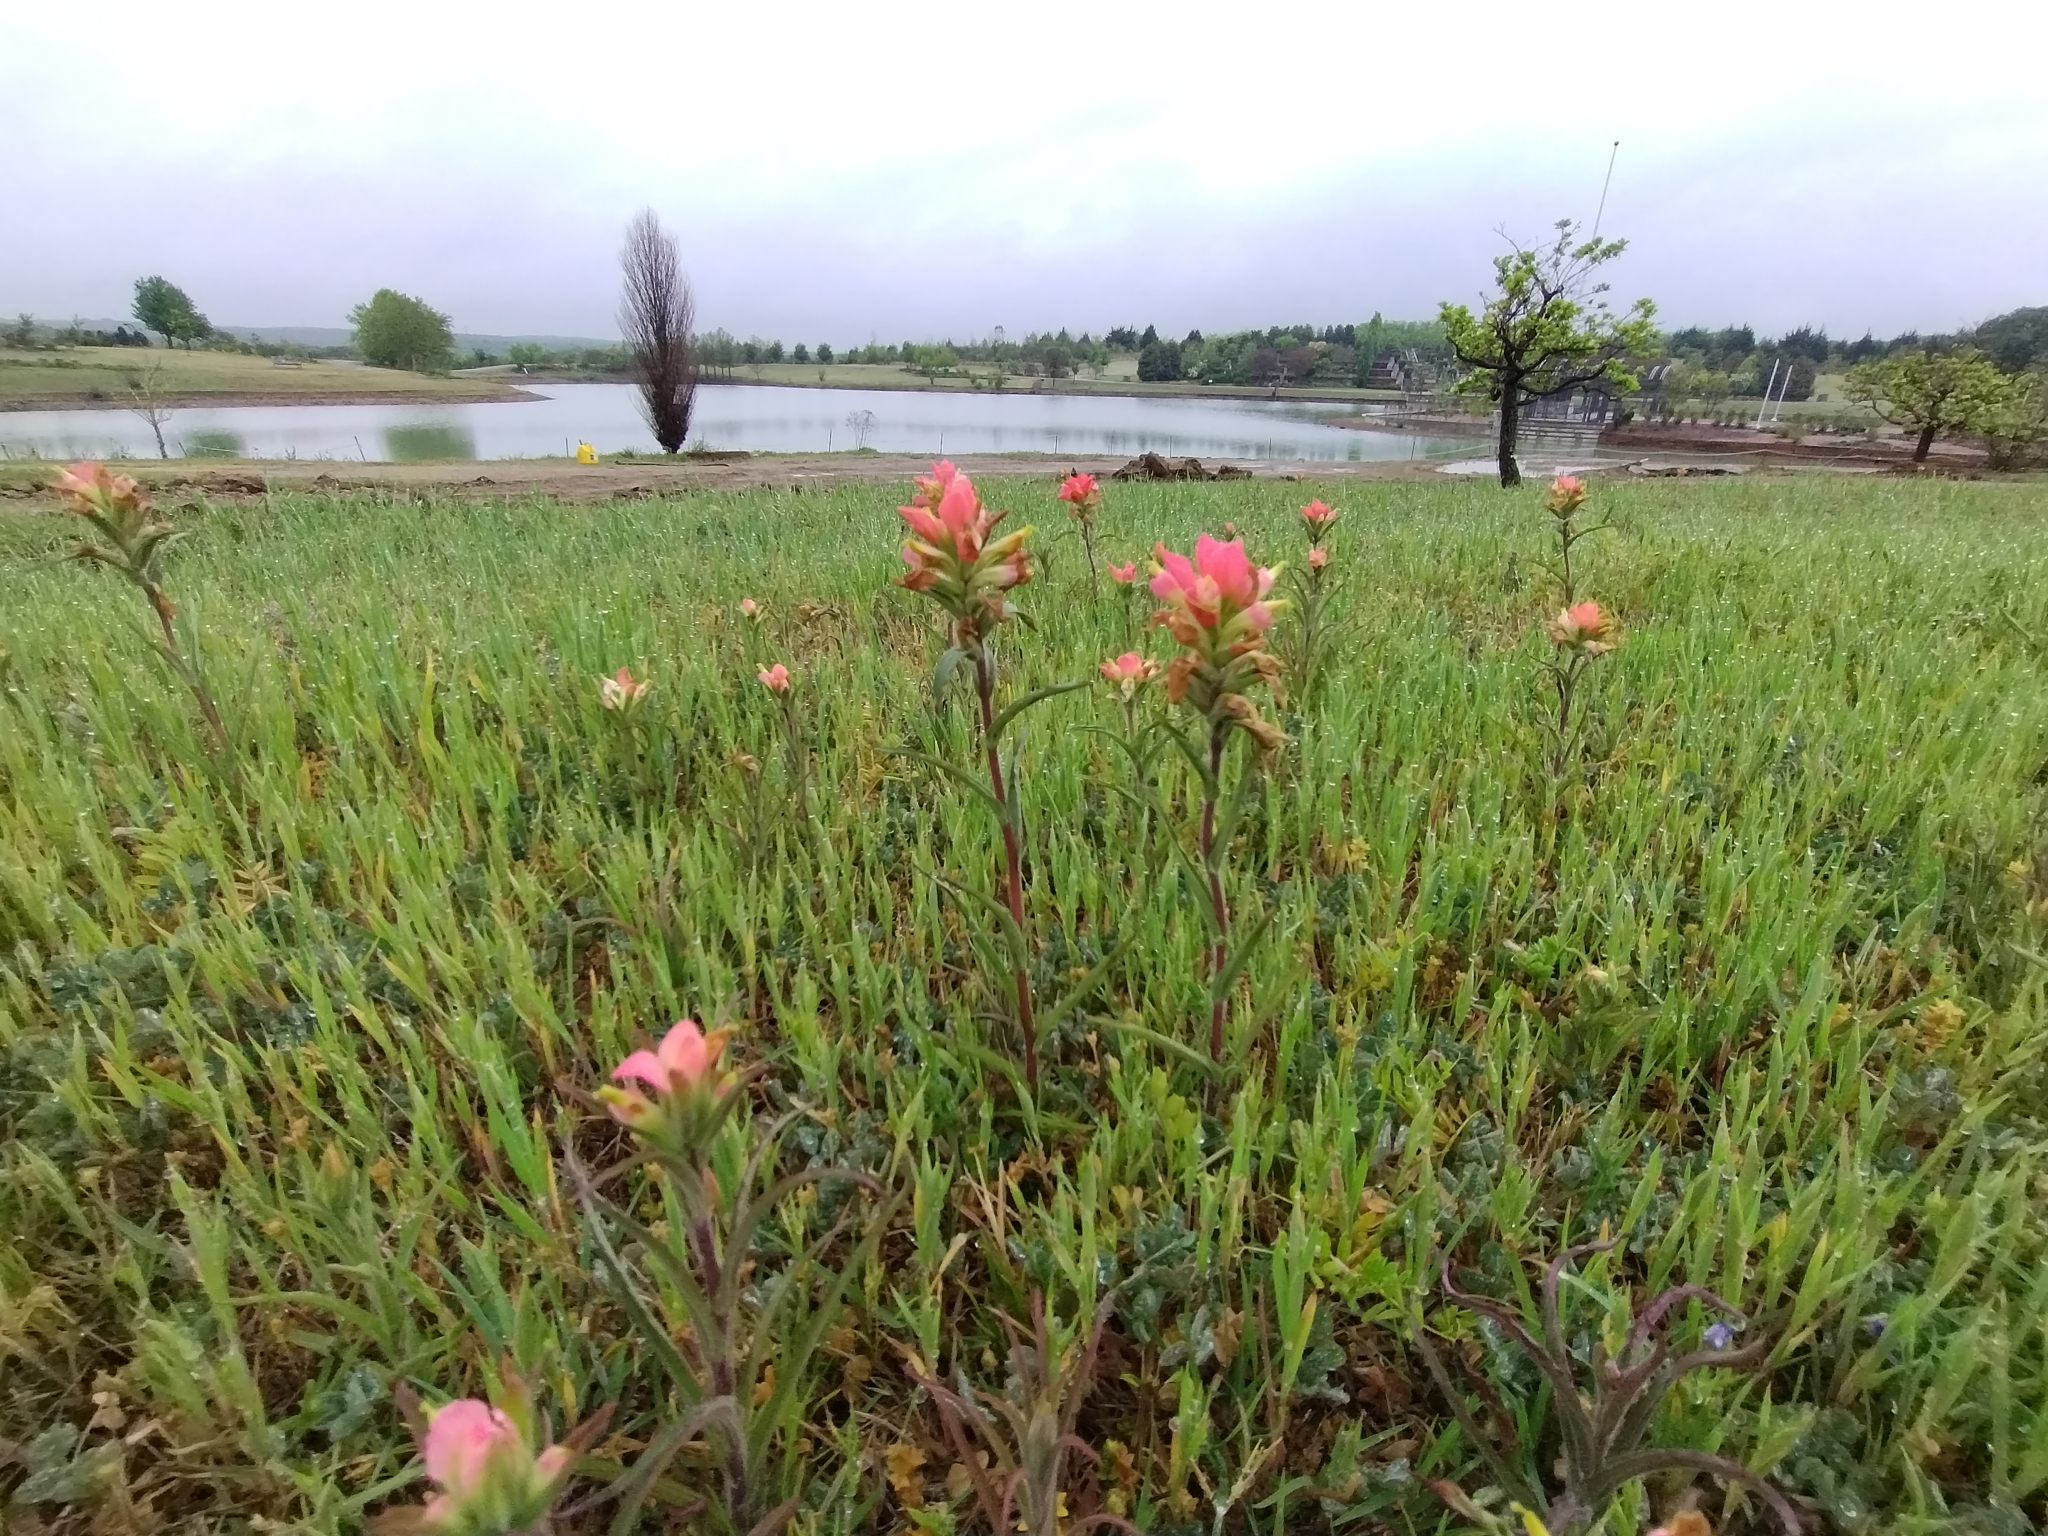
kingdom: Plantae
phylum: Tracheophyta
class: Magnoliopsida
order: Lamiales
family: Orobanchaceae
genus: Castilleja
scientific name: Castilleja indivisa
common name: Texas paintbrush
